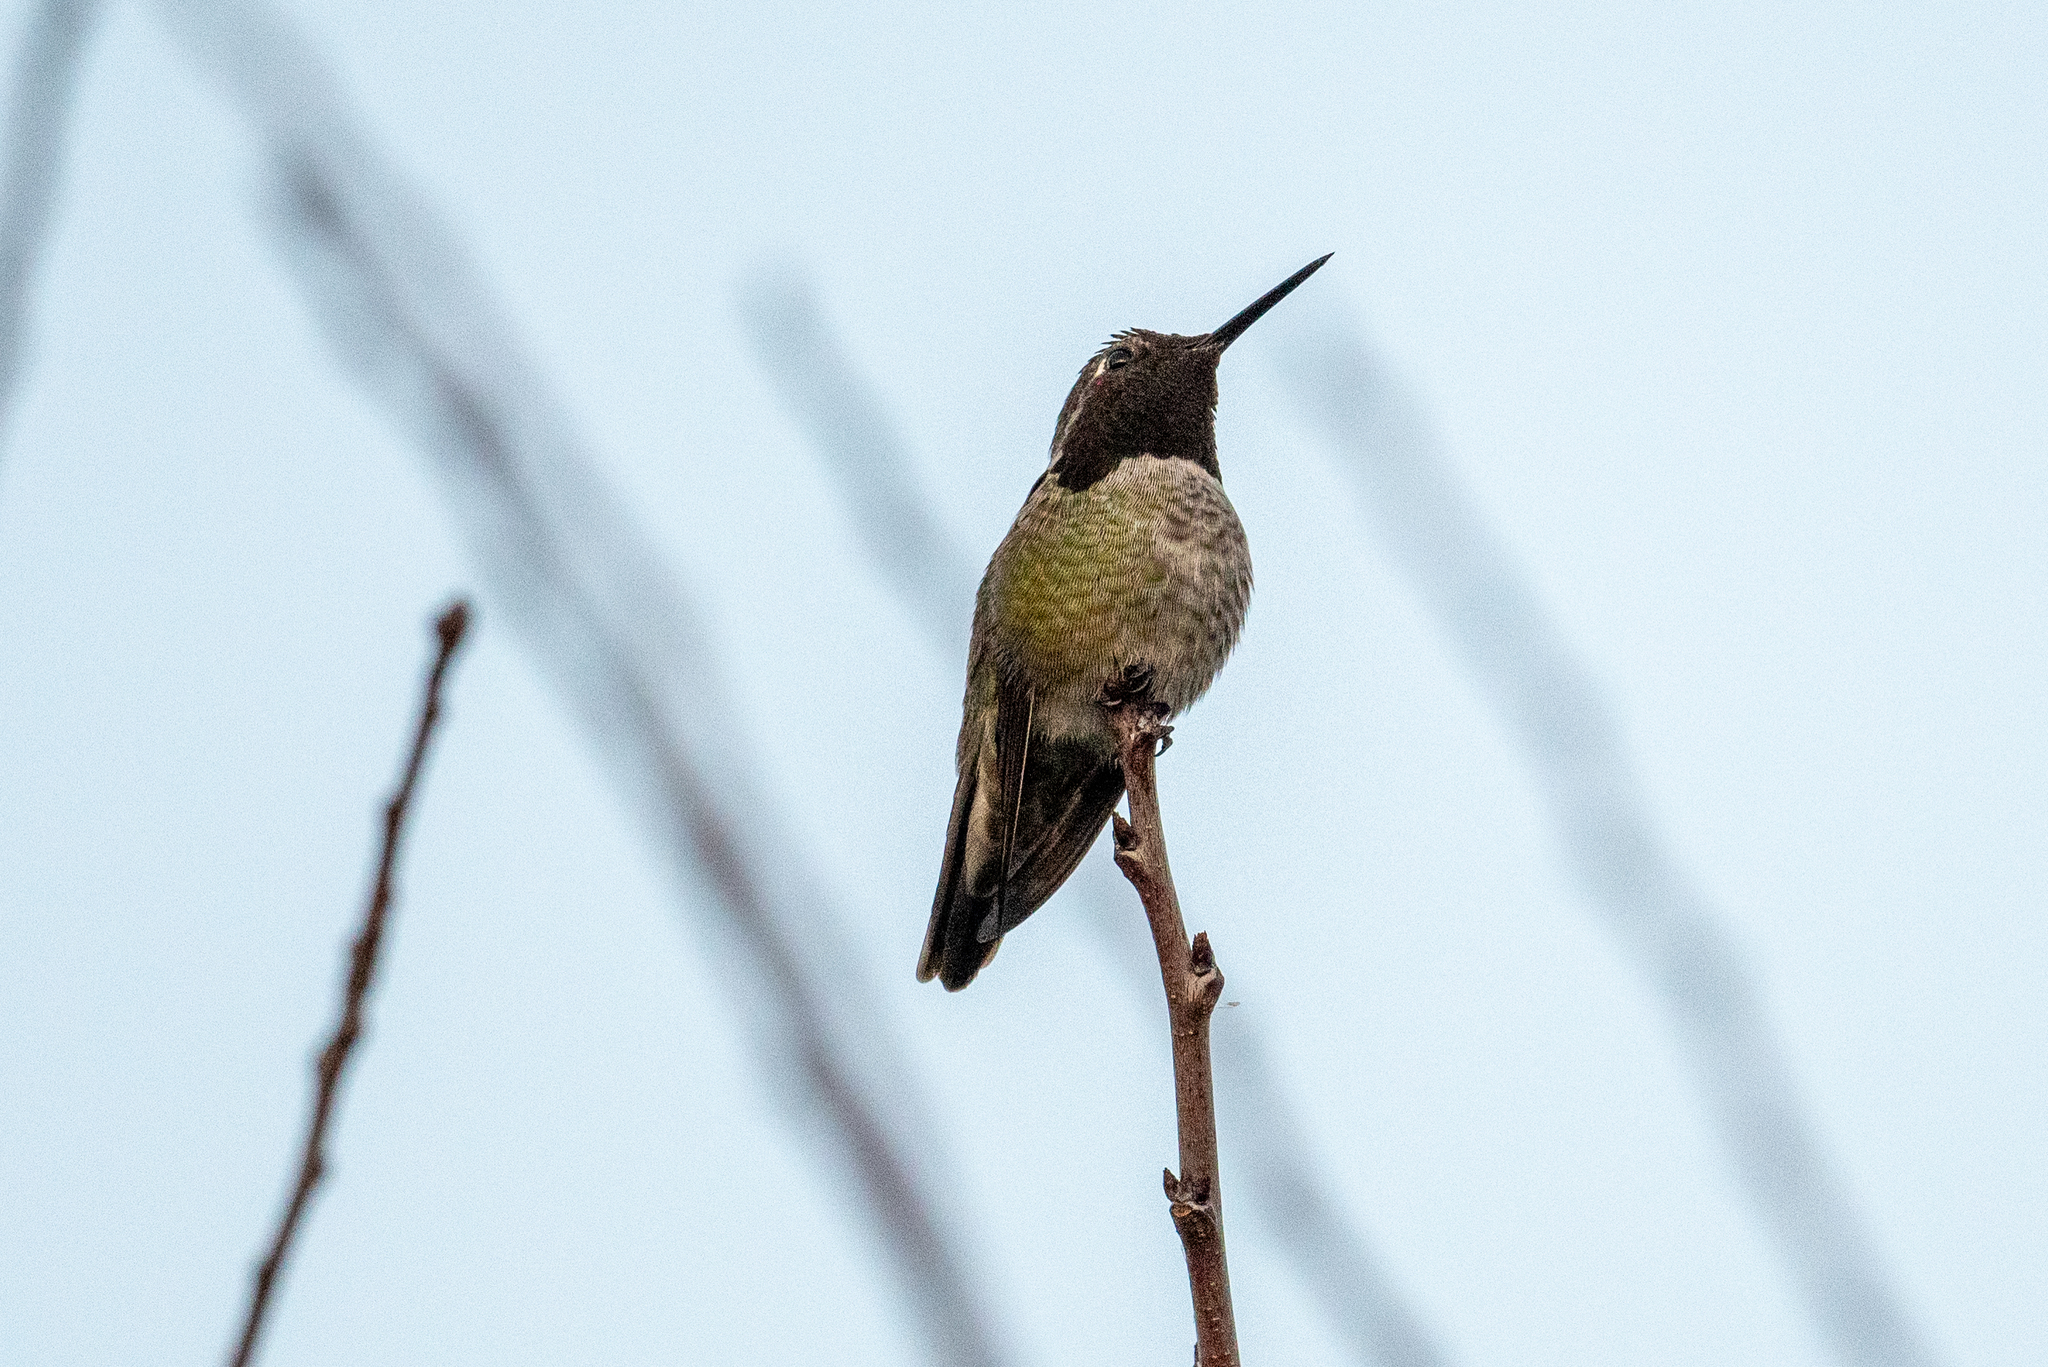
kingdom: Animalia
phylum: Chordata
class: Aves
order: Apodiformes
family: Trochilidae
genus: Calypte
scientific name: Calypte anna
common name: Anna's hummingbird
